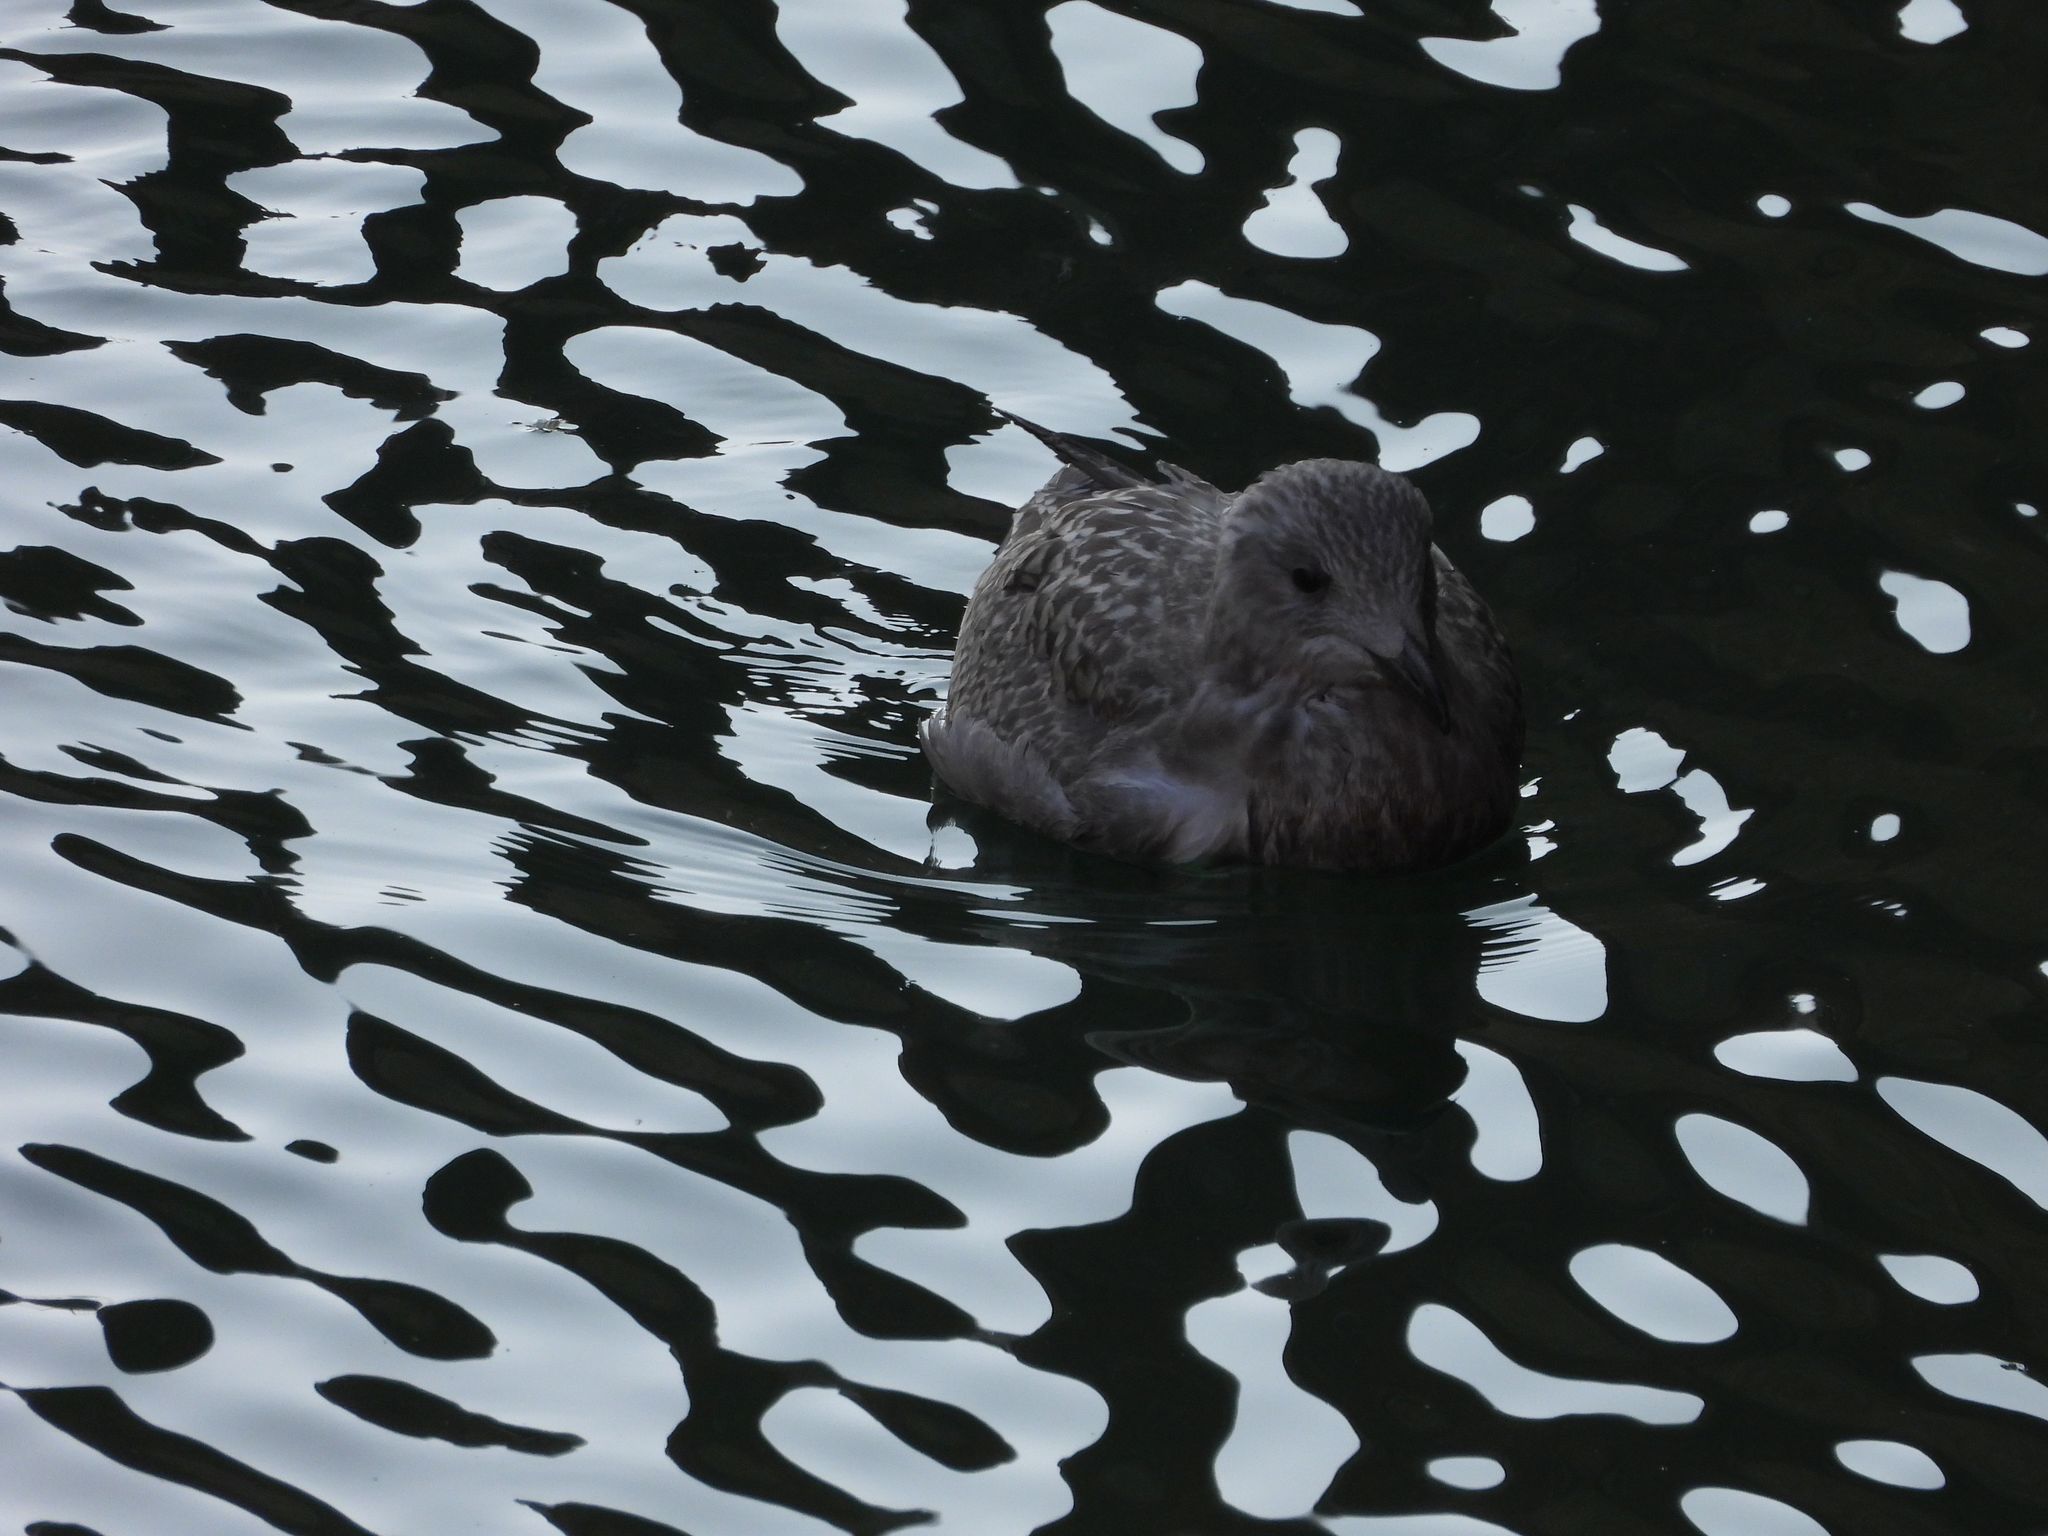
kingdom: Animalia
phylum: Chordata
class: Aves
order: Charadriiformes
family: Laridae
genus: Larus
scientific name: Larus argentatus
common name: Herring gull
